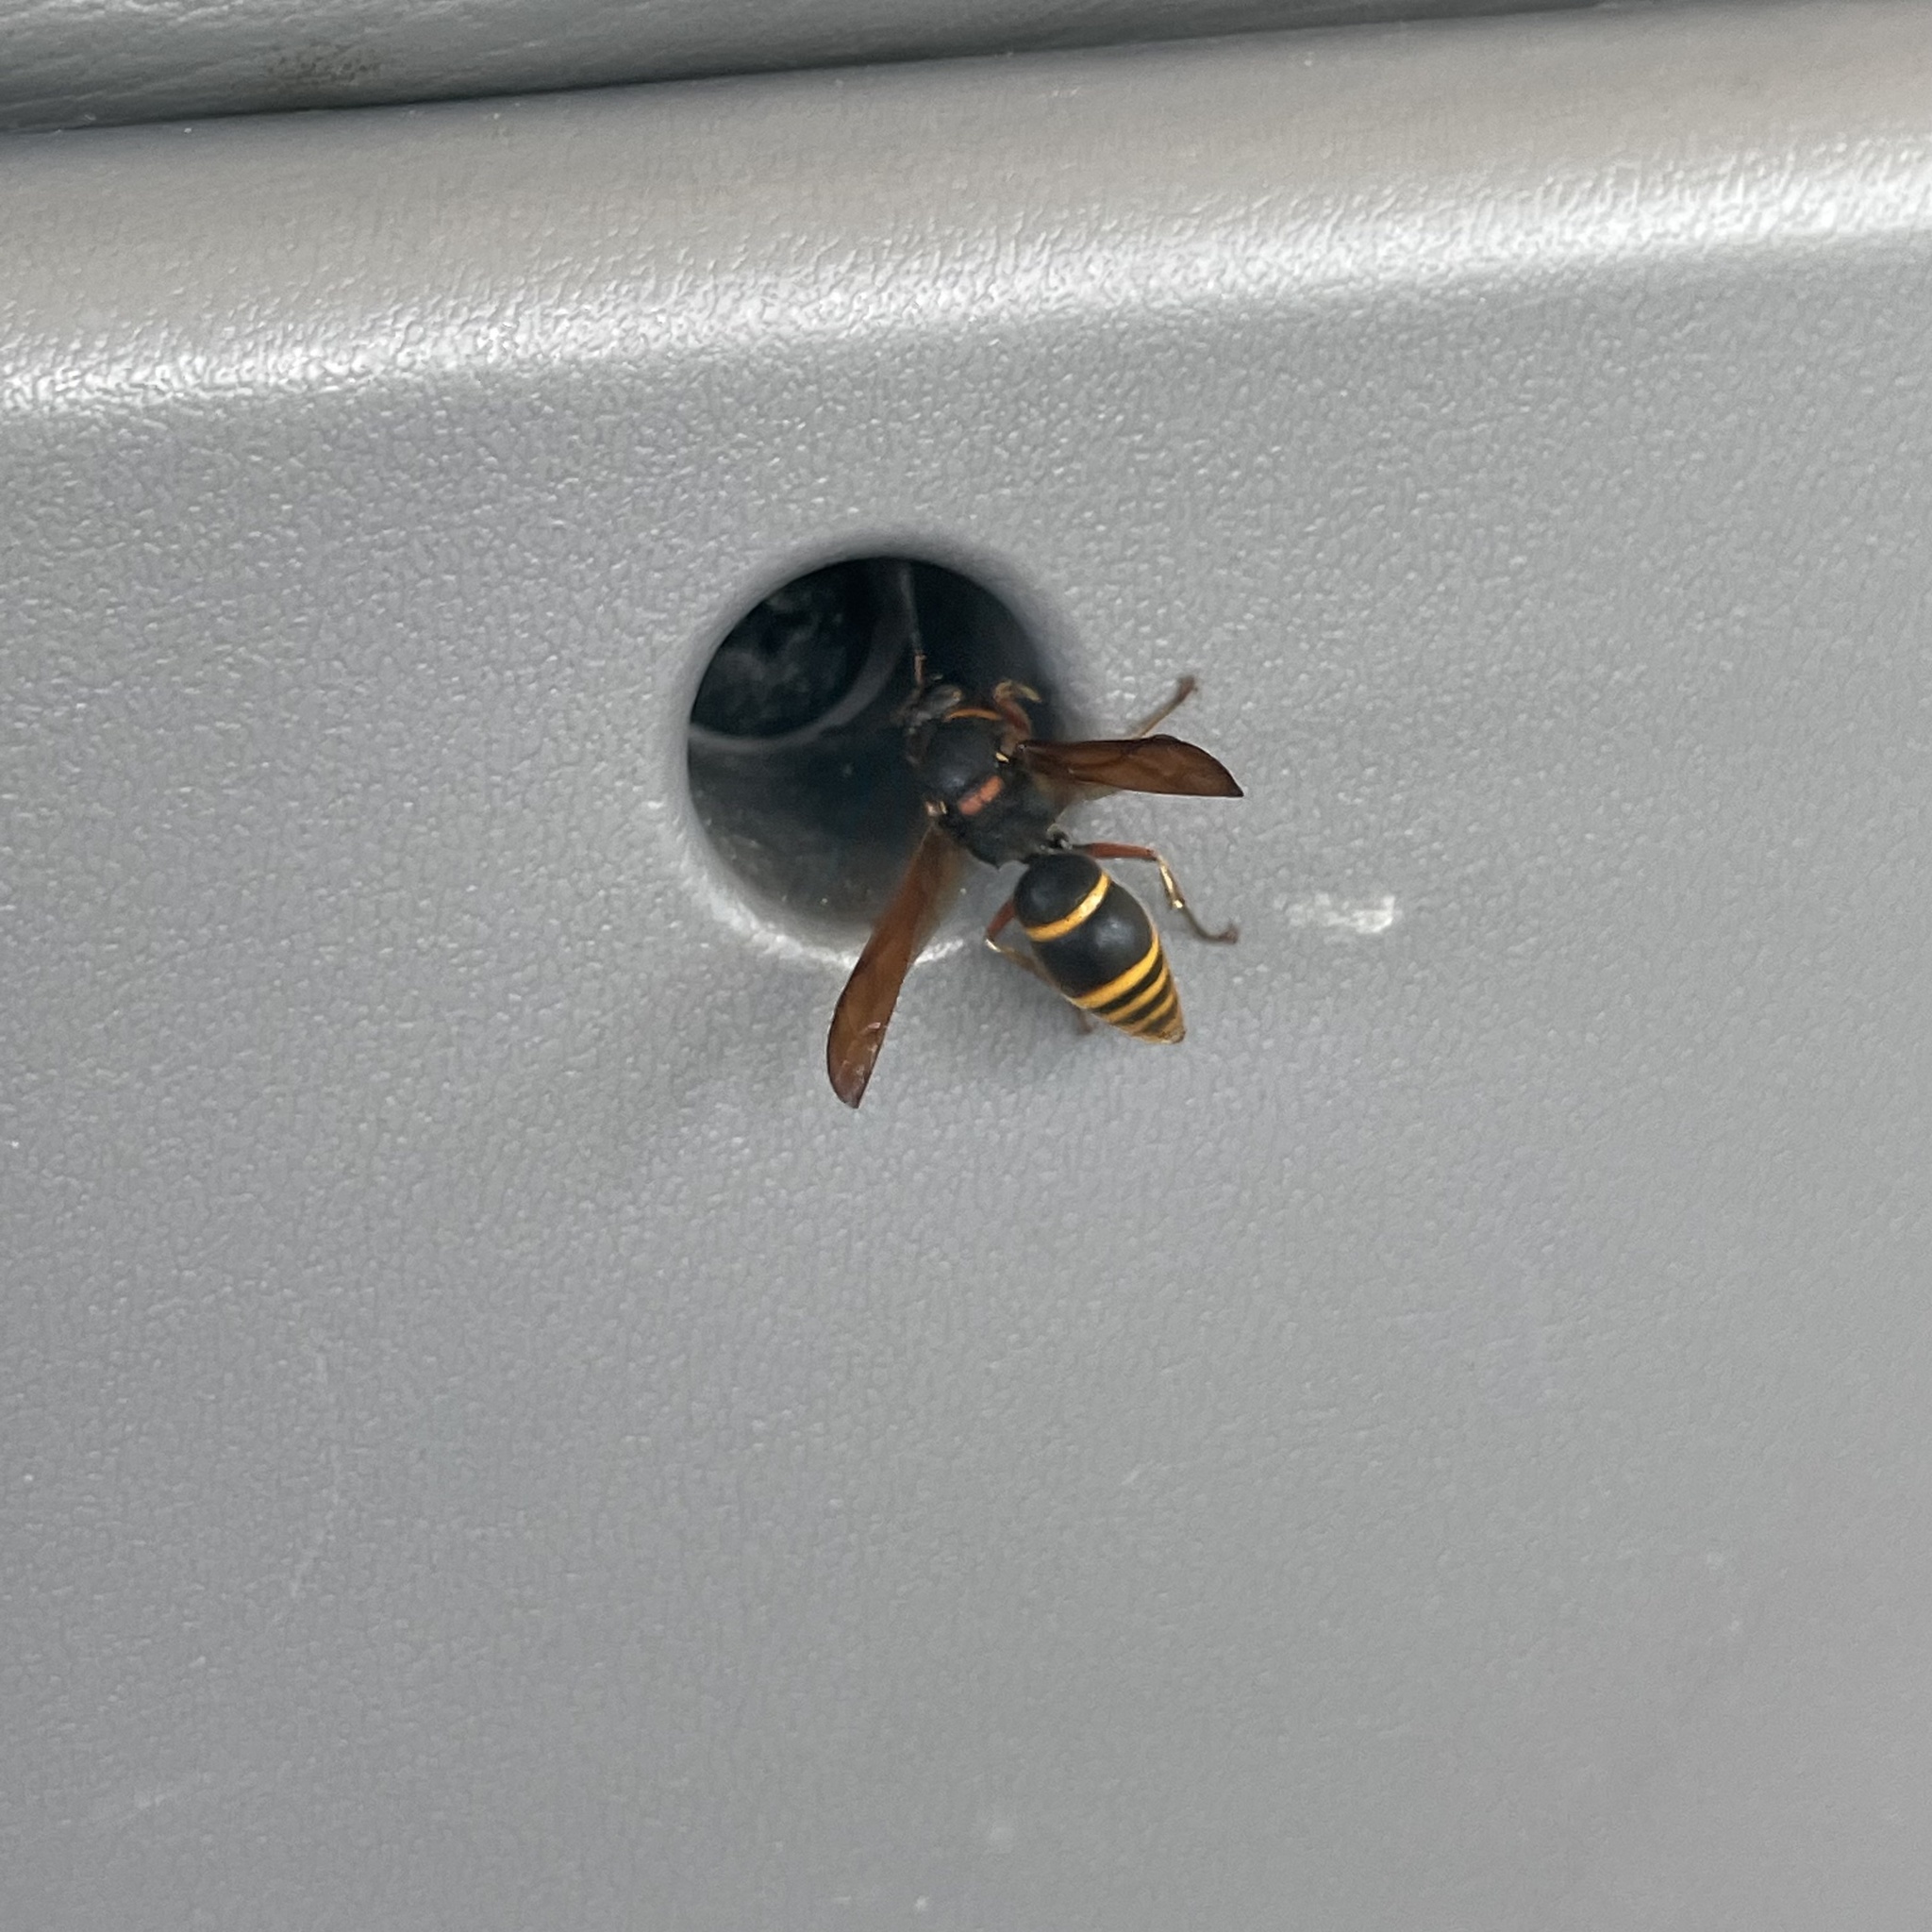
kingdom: Animalia
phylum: Arthropoda
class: Insecta
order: Hymenoptera
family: Eumenidae
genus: Anterhynchium
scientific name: Anterhynchium flavomarginatum
